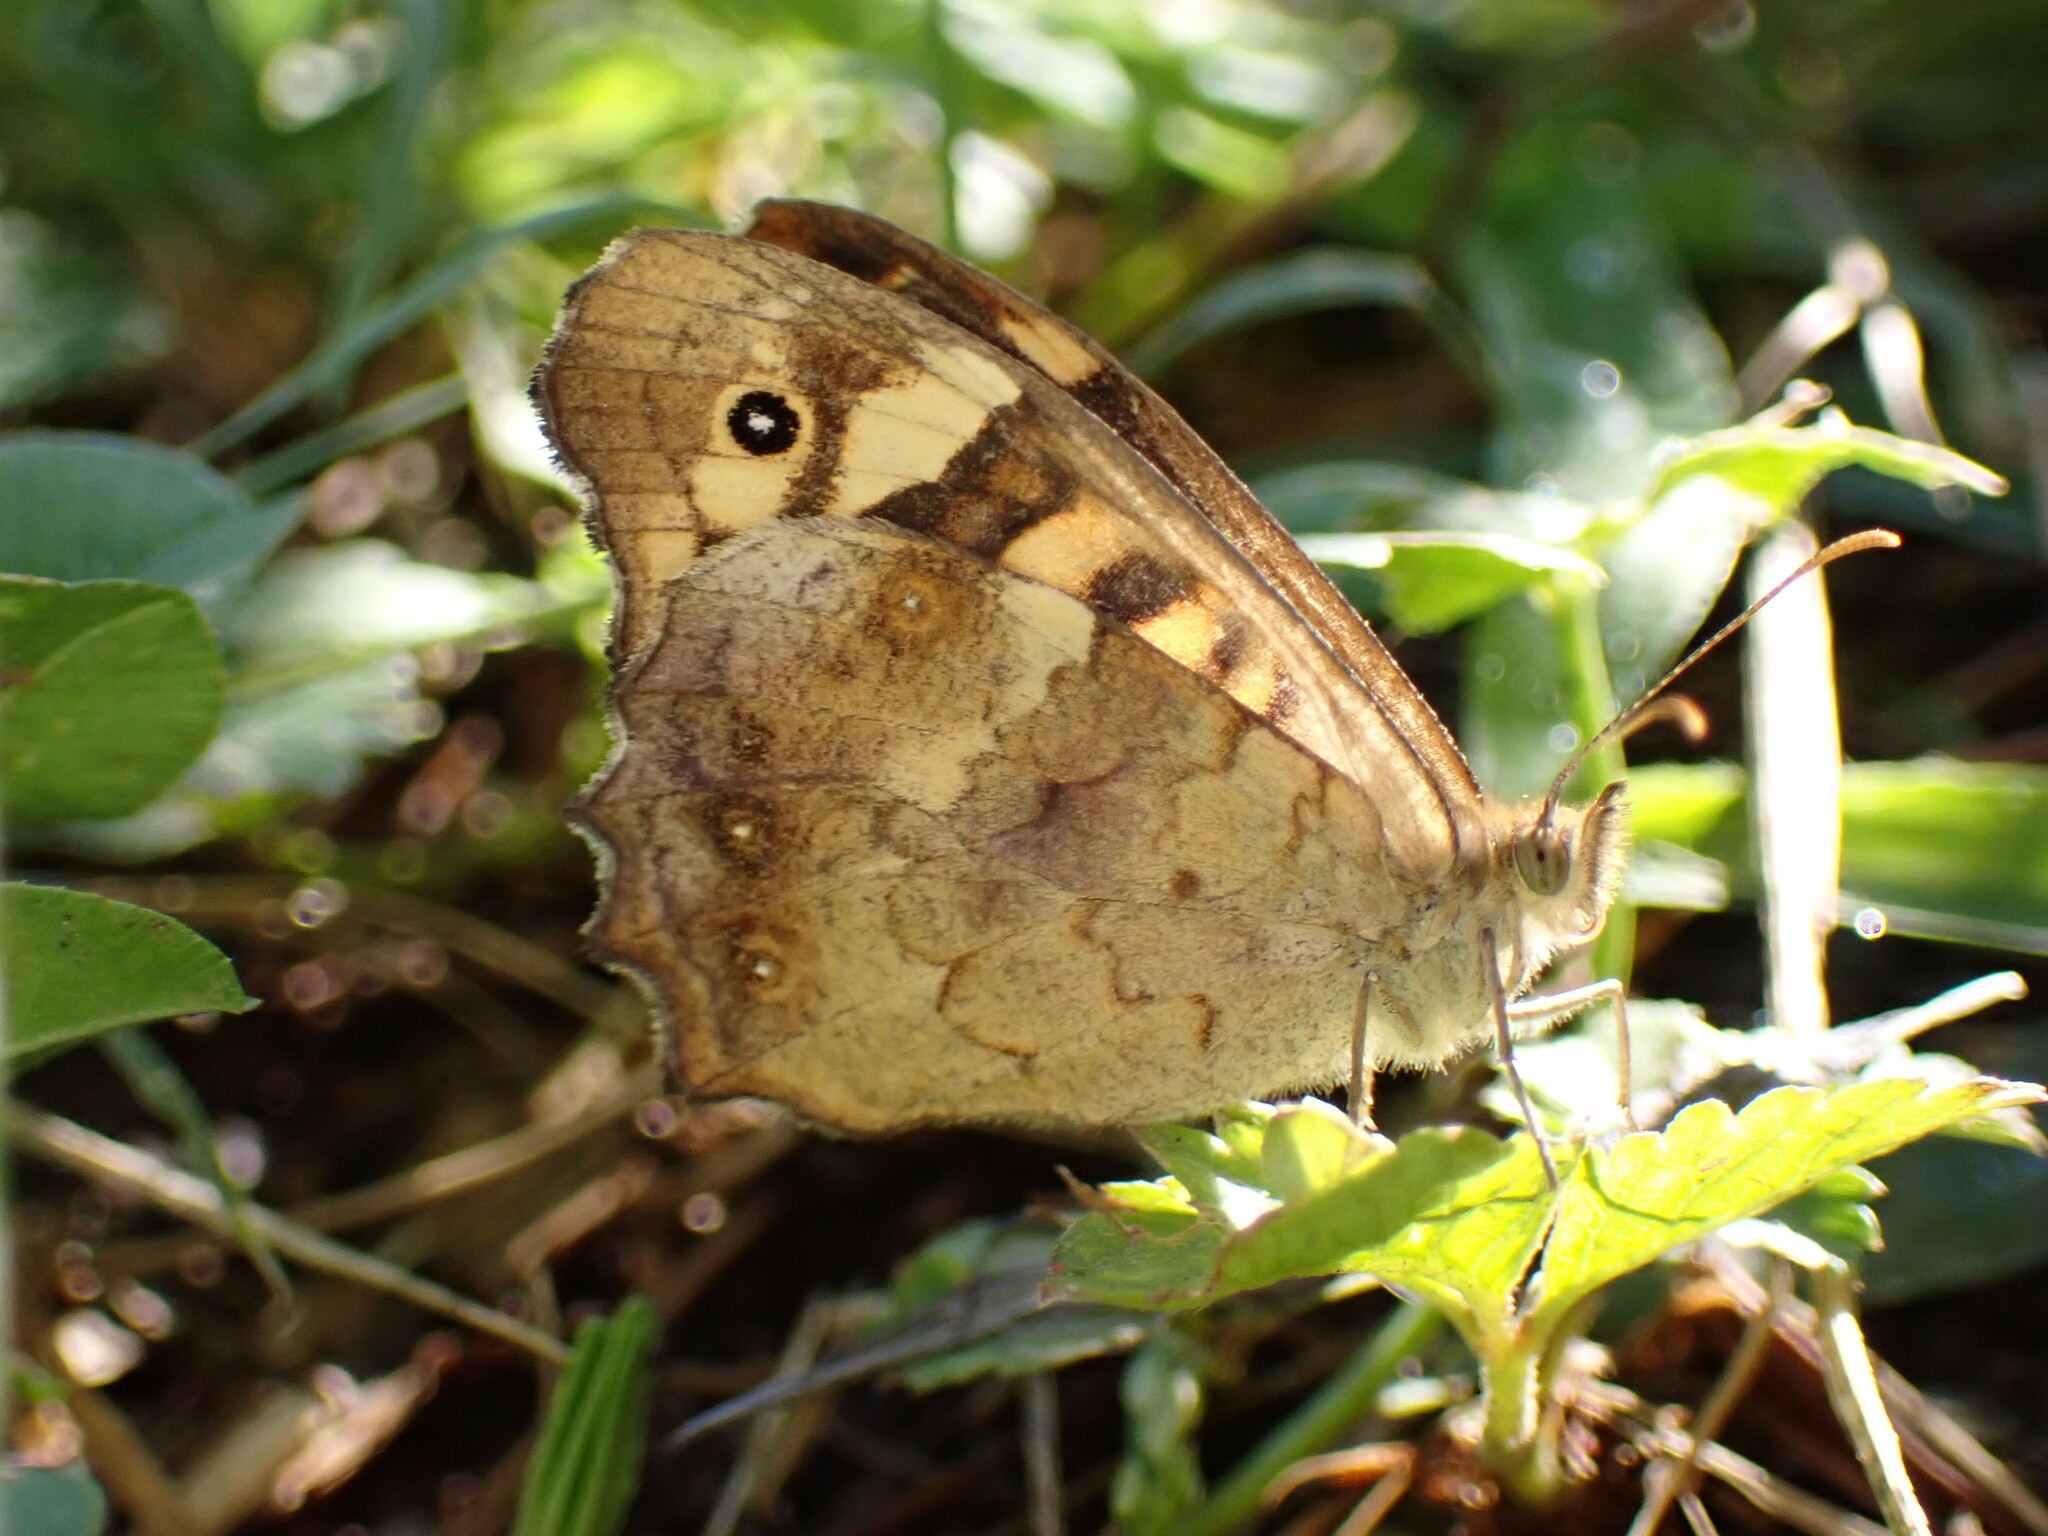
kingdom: Animalia
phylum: Arthropoda
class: Insecta
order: Lepidoptera
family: Nymphalidae
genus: Pararge
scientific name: Pararge aegeria
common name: Speckled wood
